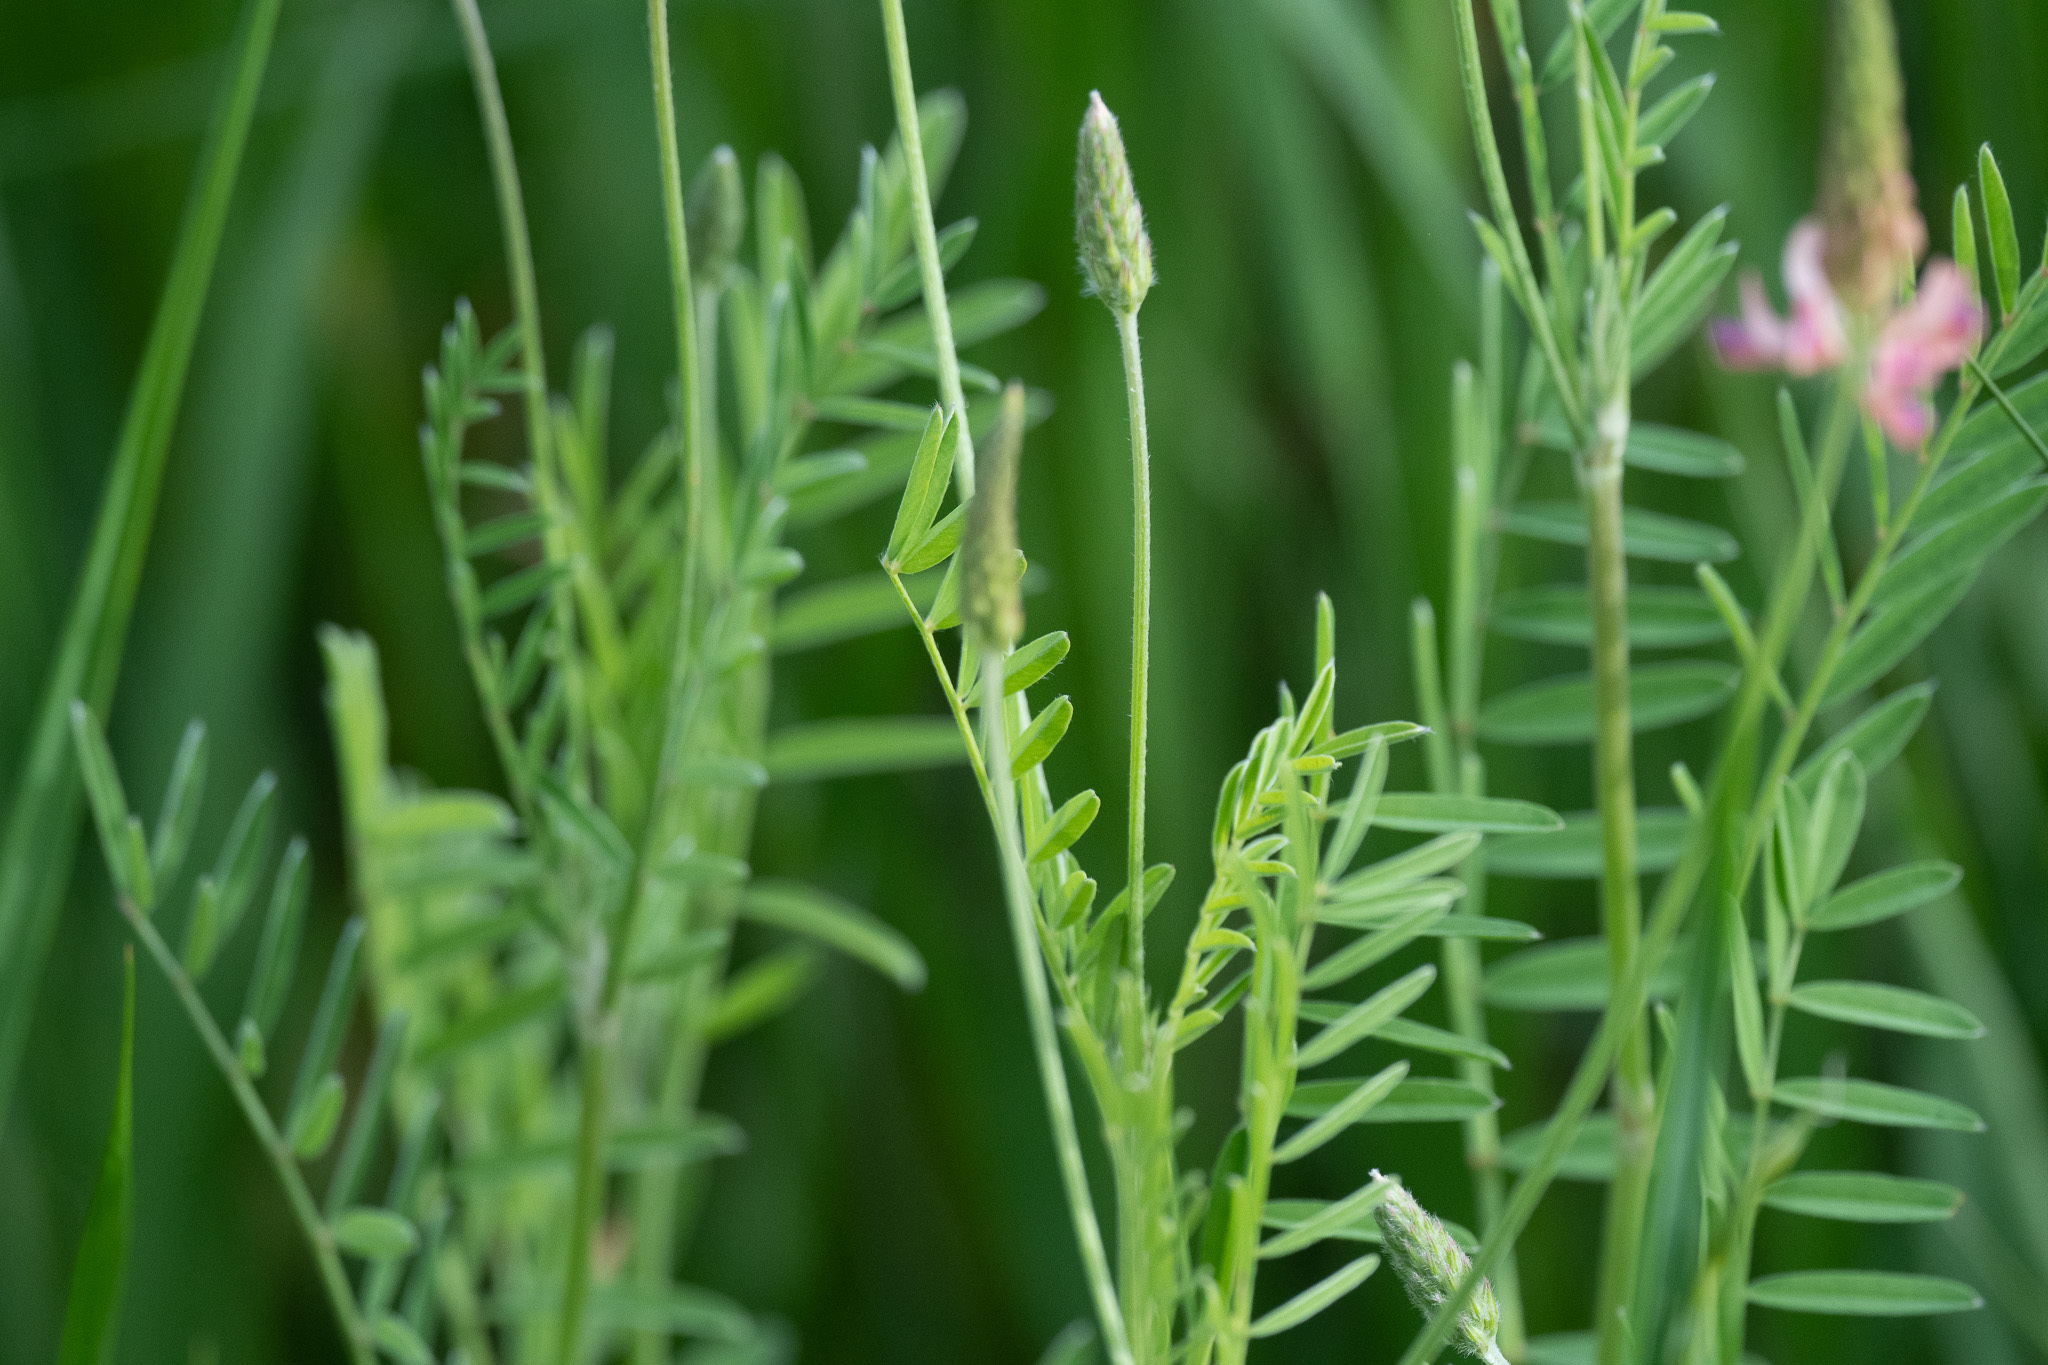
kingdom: Plantae
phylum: Tracheophyta
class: Magnoliopsida
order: Fabales
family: Fabaceae
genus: Onobrychis
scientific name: Onobrychis viciifolia
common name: Sainfoin
